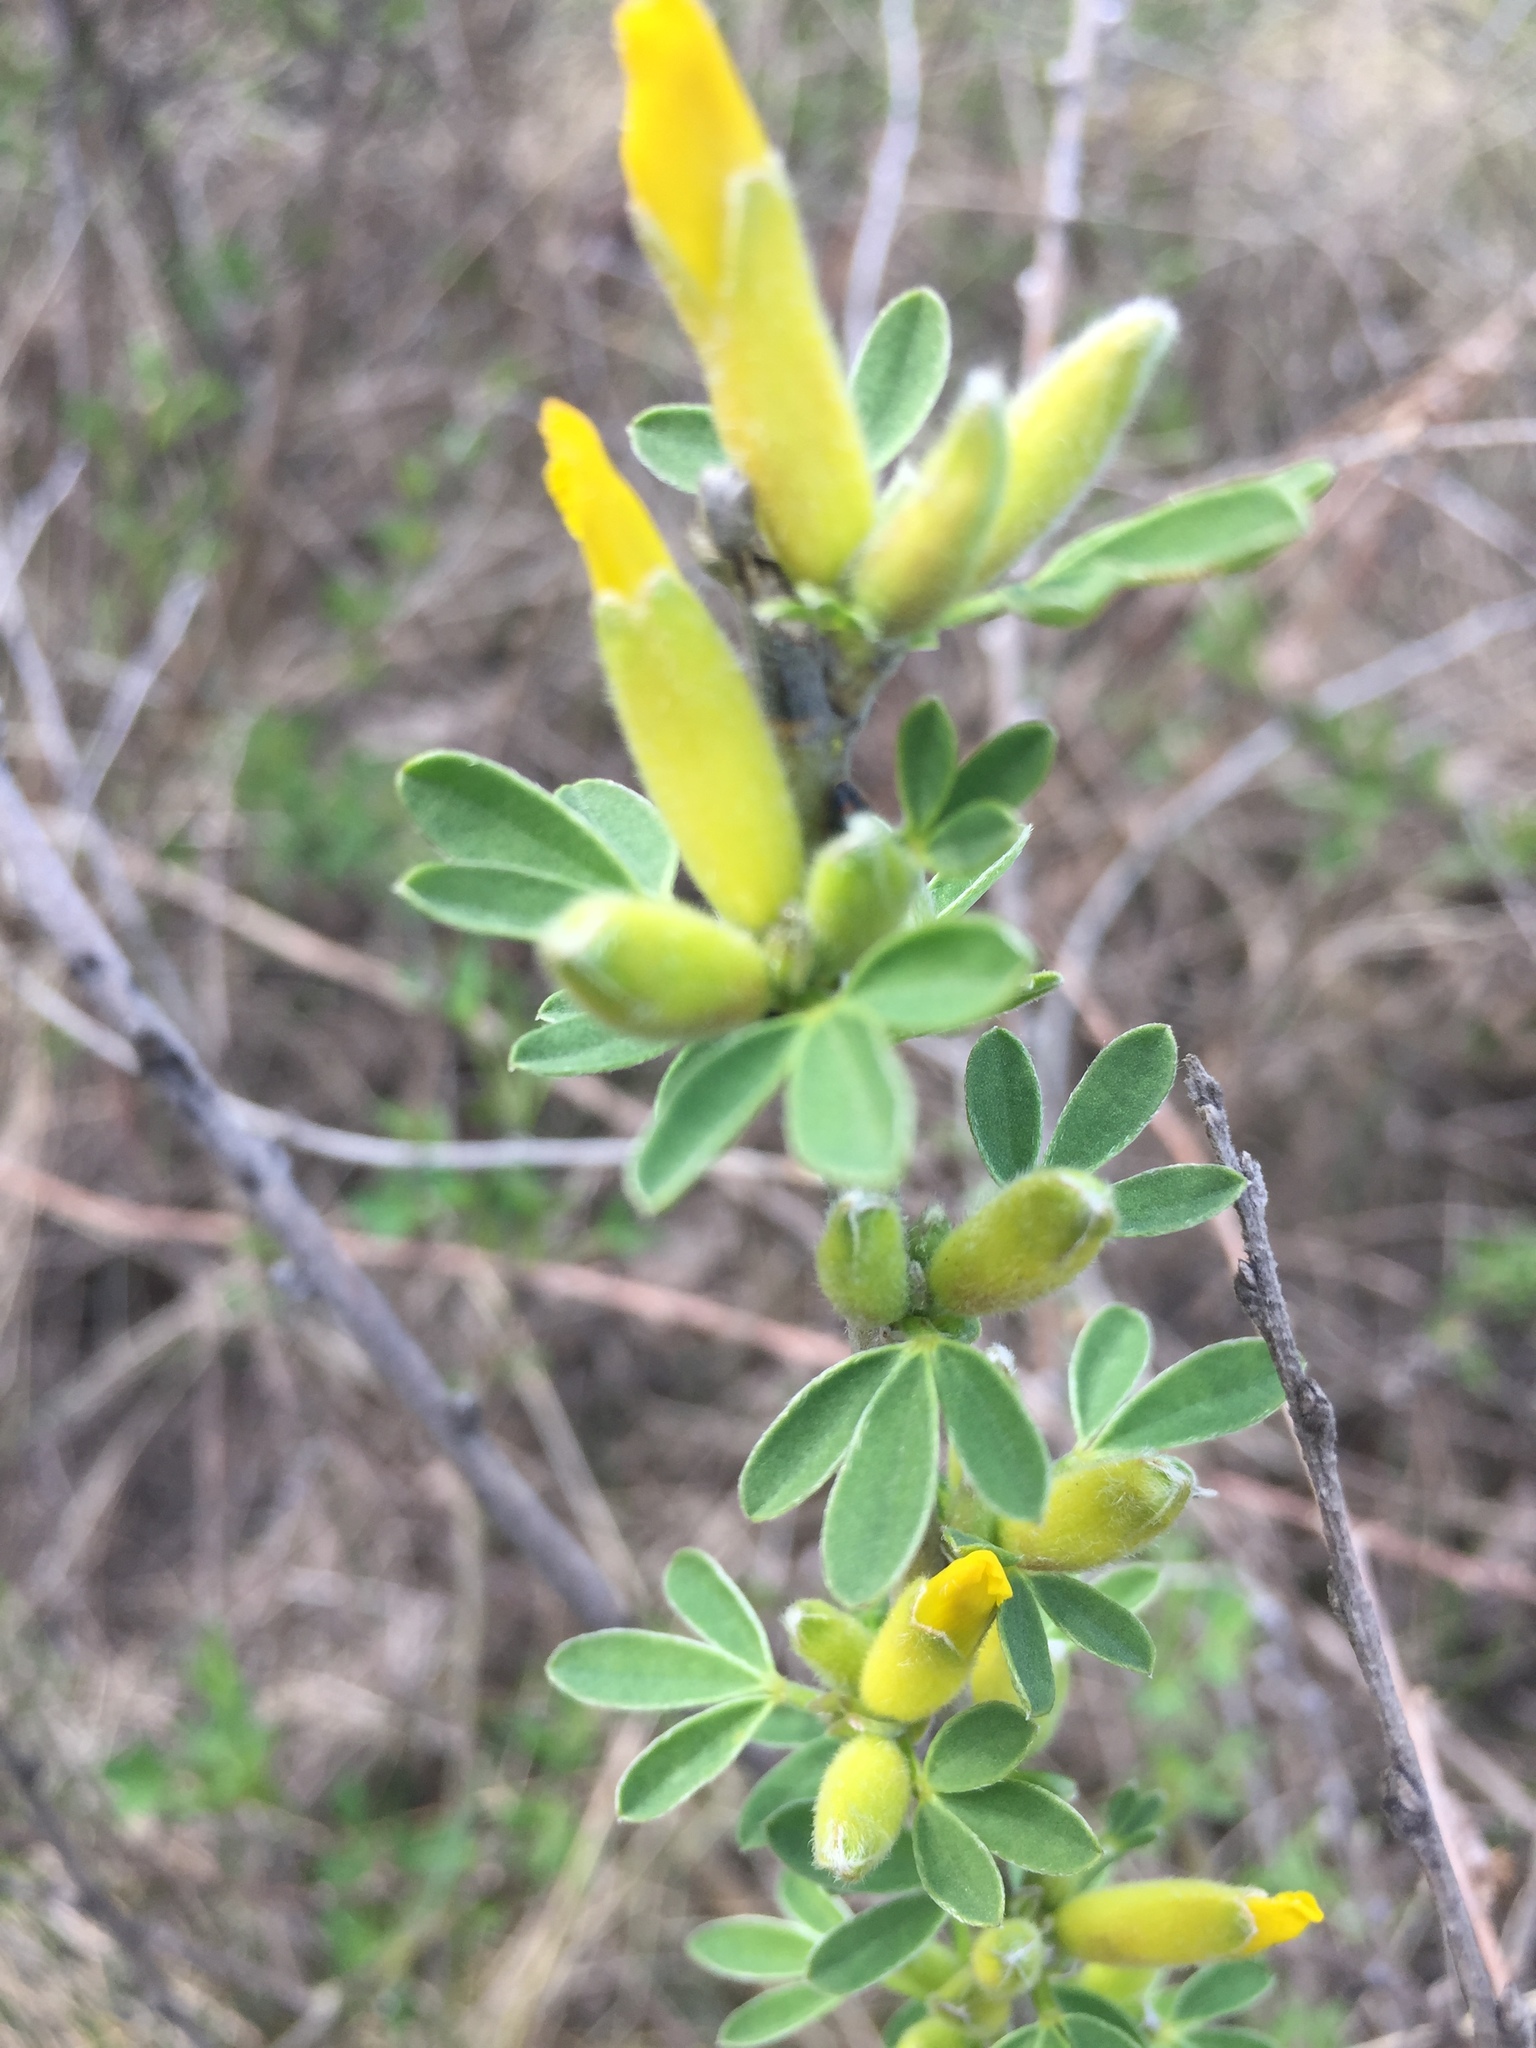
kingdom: Plantae
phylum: Tracheophyta
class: Magnoliopsida
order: Fabales
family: Fabaceae
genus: Chamaecytisus
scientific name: Chamaecytisus ruthenicus
